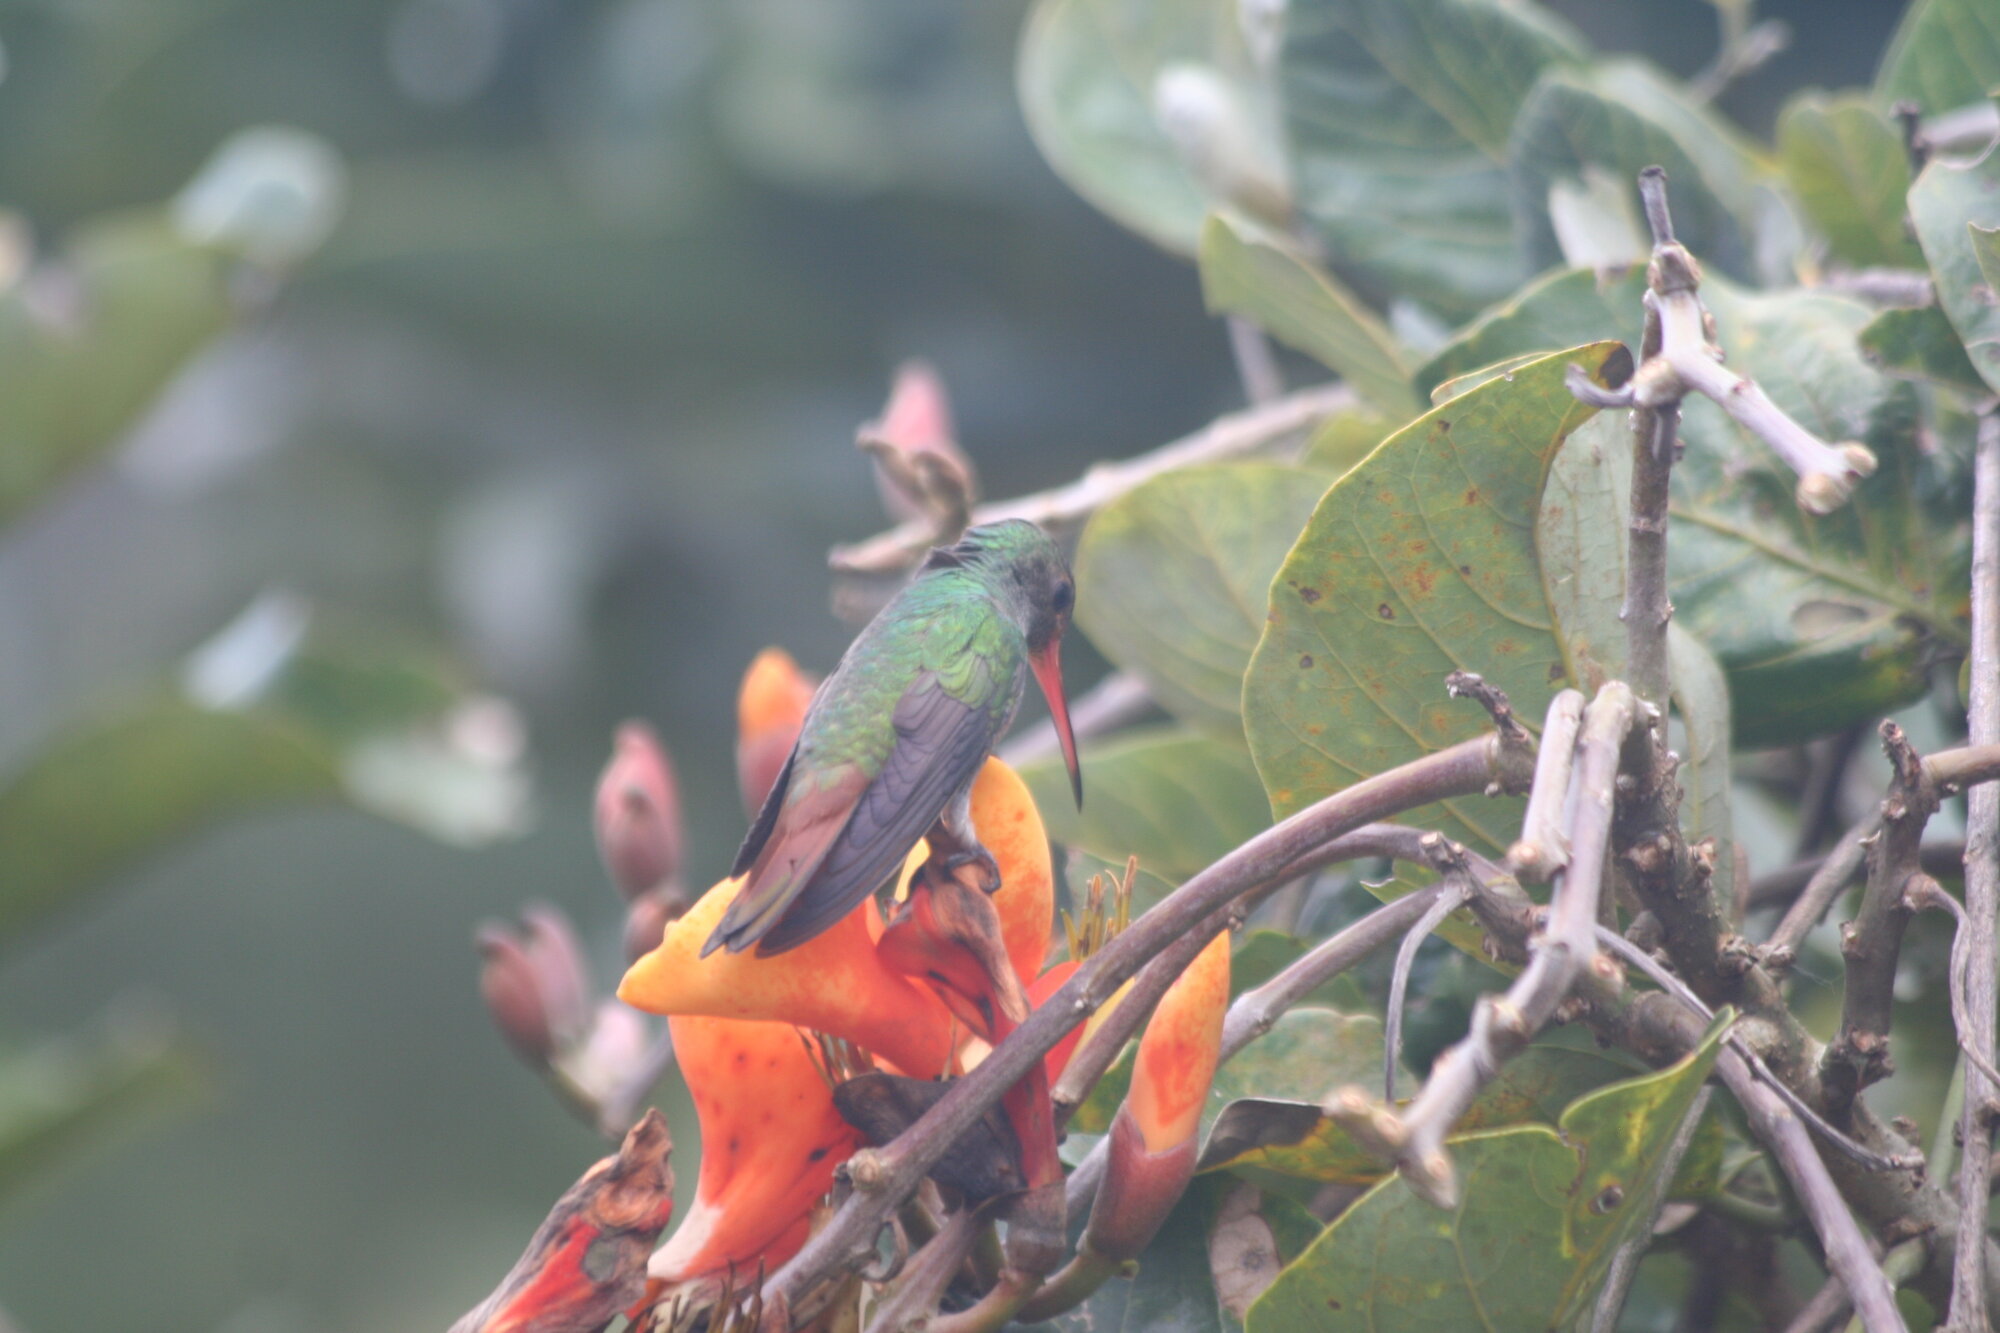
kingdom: Animalia
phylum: Chordata
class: Aves
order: Apodiformes
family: Trochilidae
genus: Amazilia
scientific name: Amazilia tzacatl
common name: Rufous-tailed hummingbird
